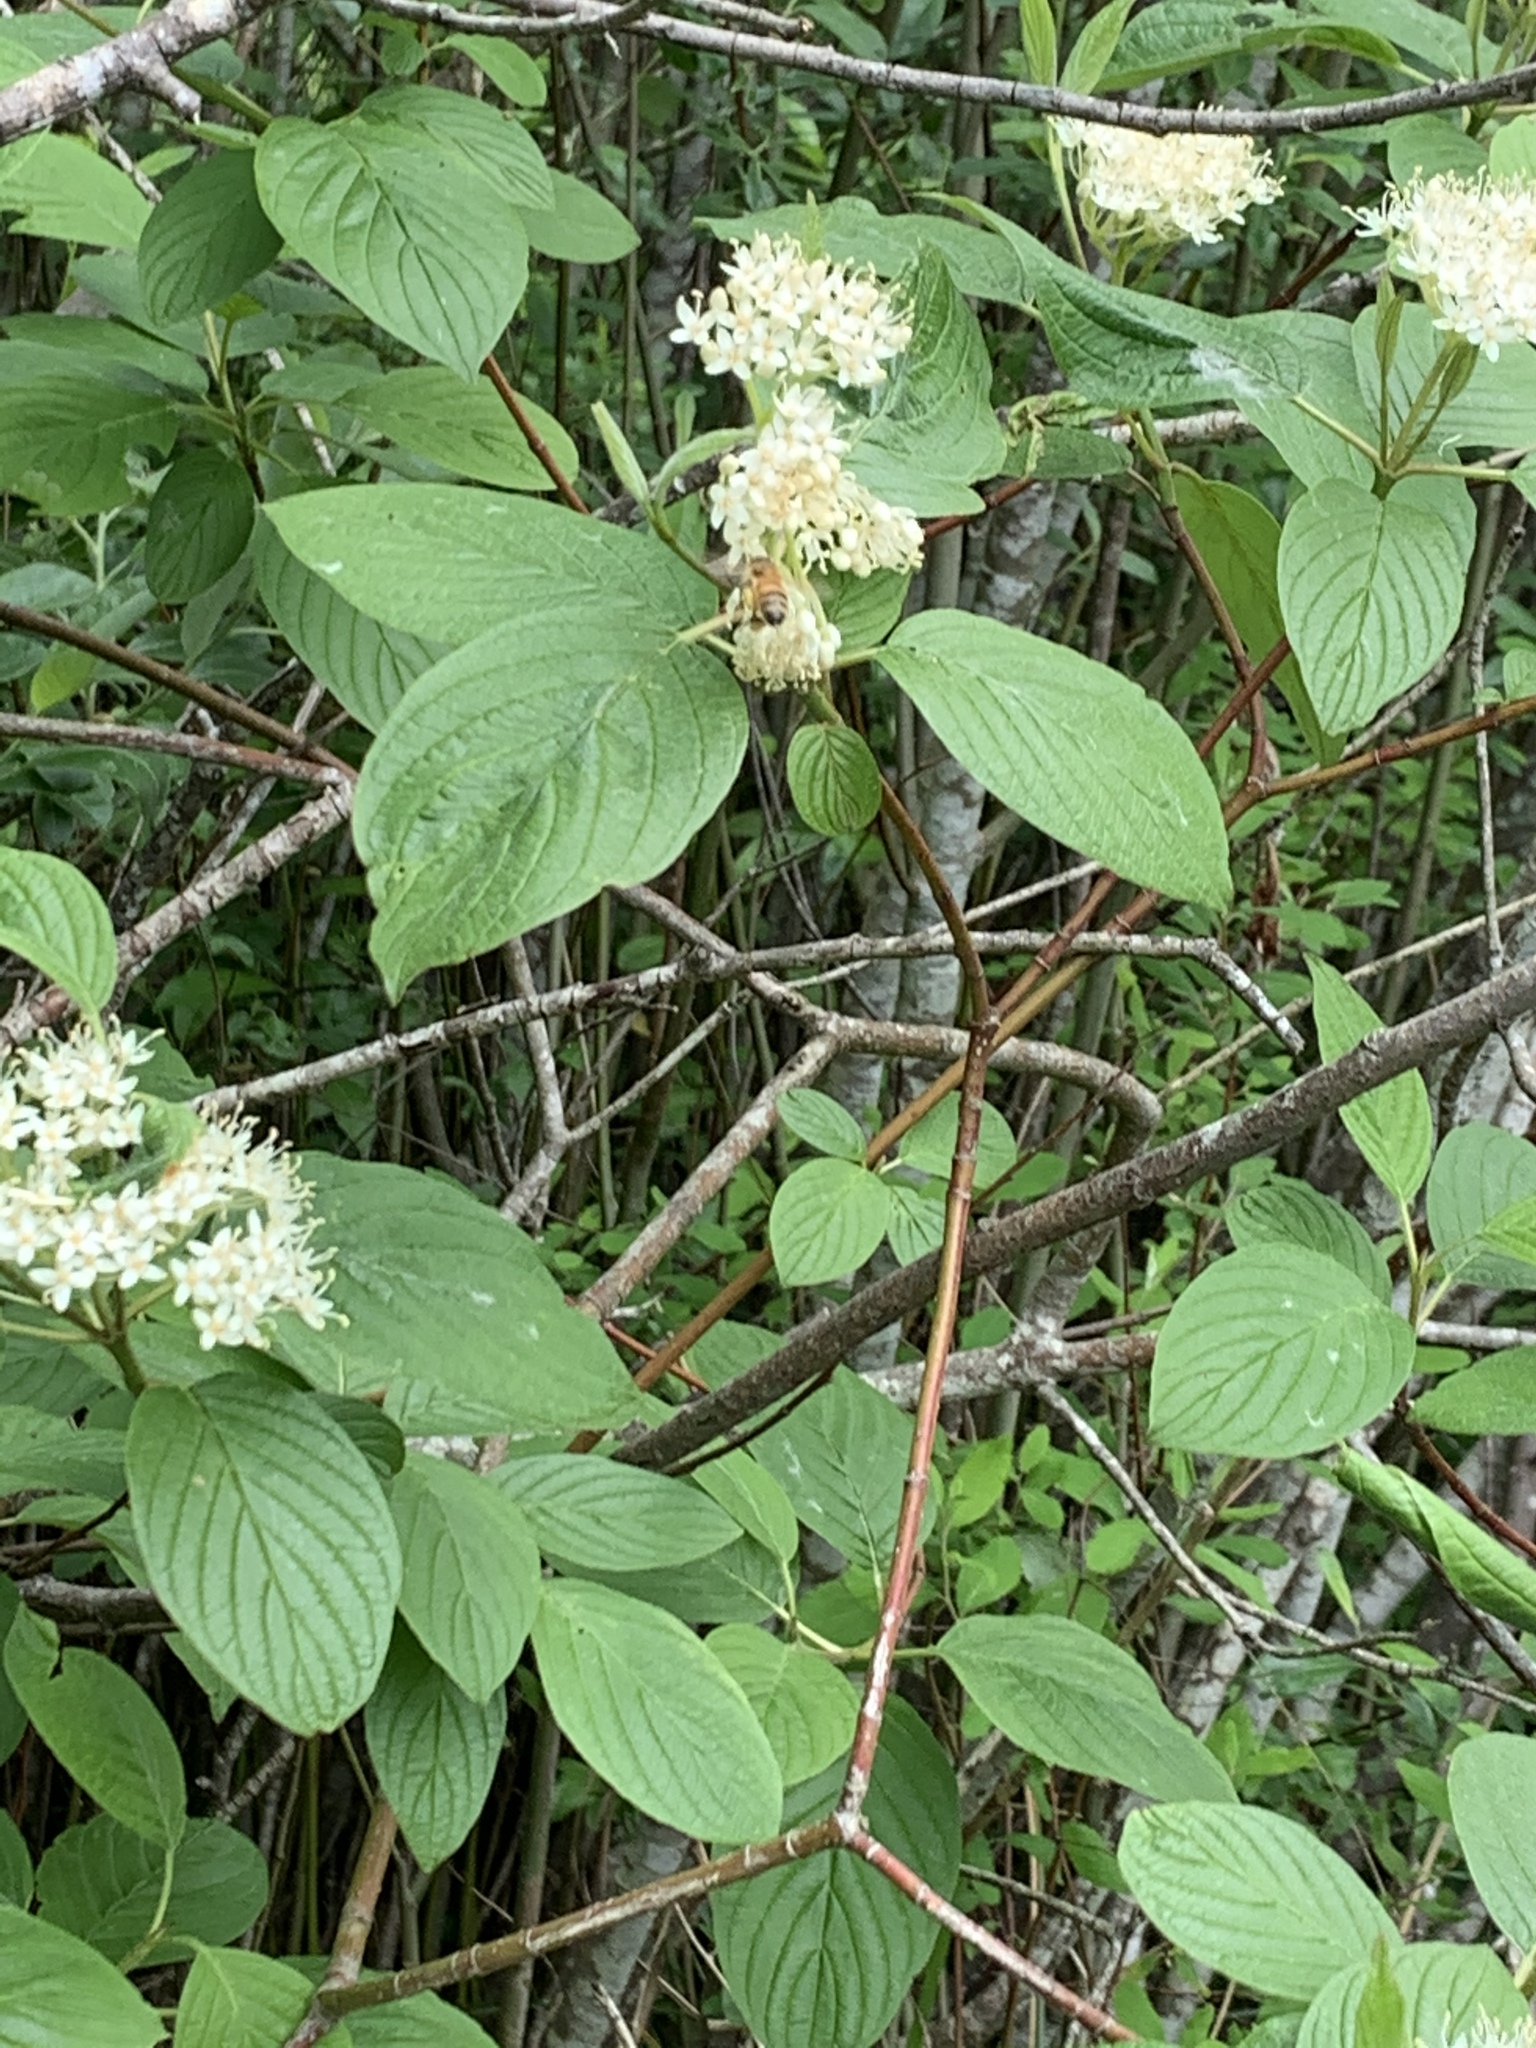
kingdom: Animalia
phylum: Arthropoda
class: Insecta
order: Hymenoptera
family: Apidae
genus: Apis
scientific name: Apis mellifera
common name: Honey bee
